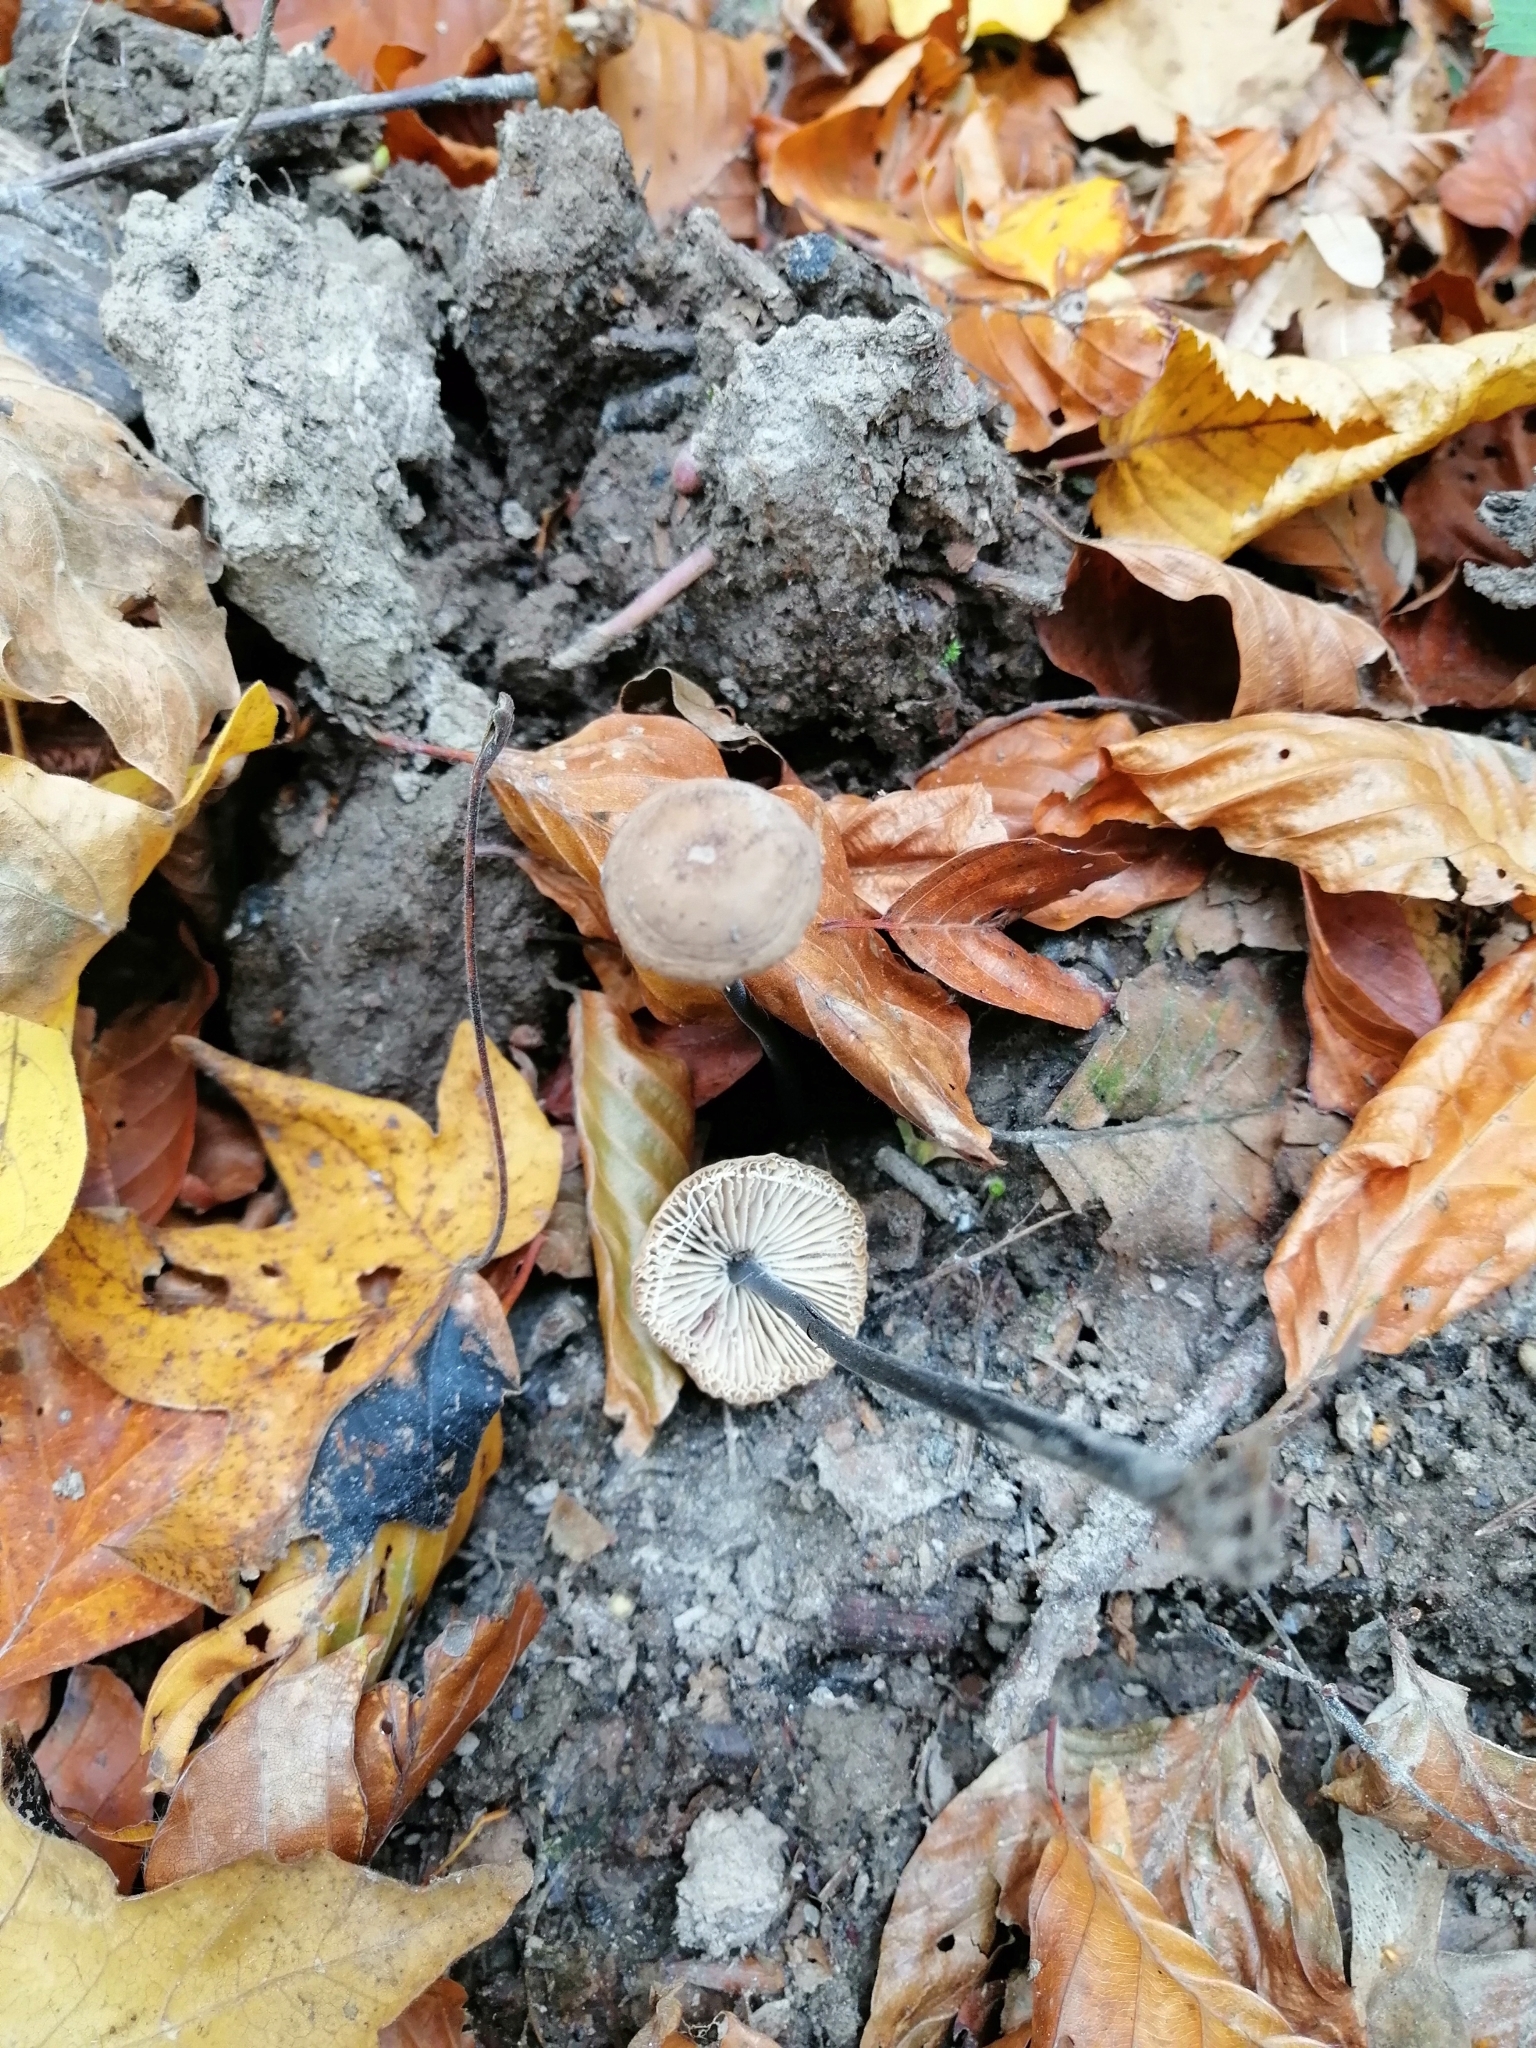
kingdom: Fungi
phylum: Basidiomycota
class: Agaricomycetes
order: Agaricales
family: Omphalotaceae
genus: Mycetinis
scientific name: Mycetinis alliaceus
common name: Garlic parachute
